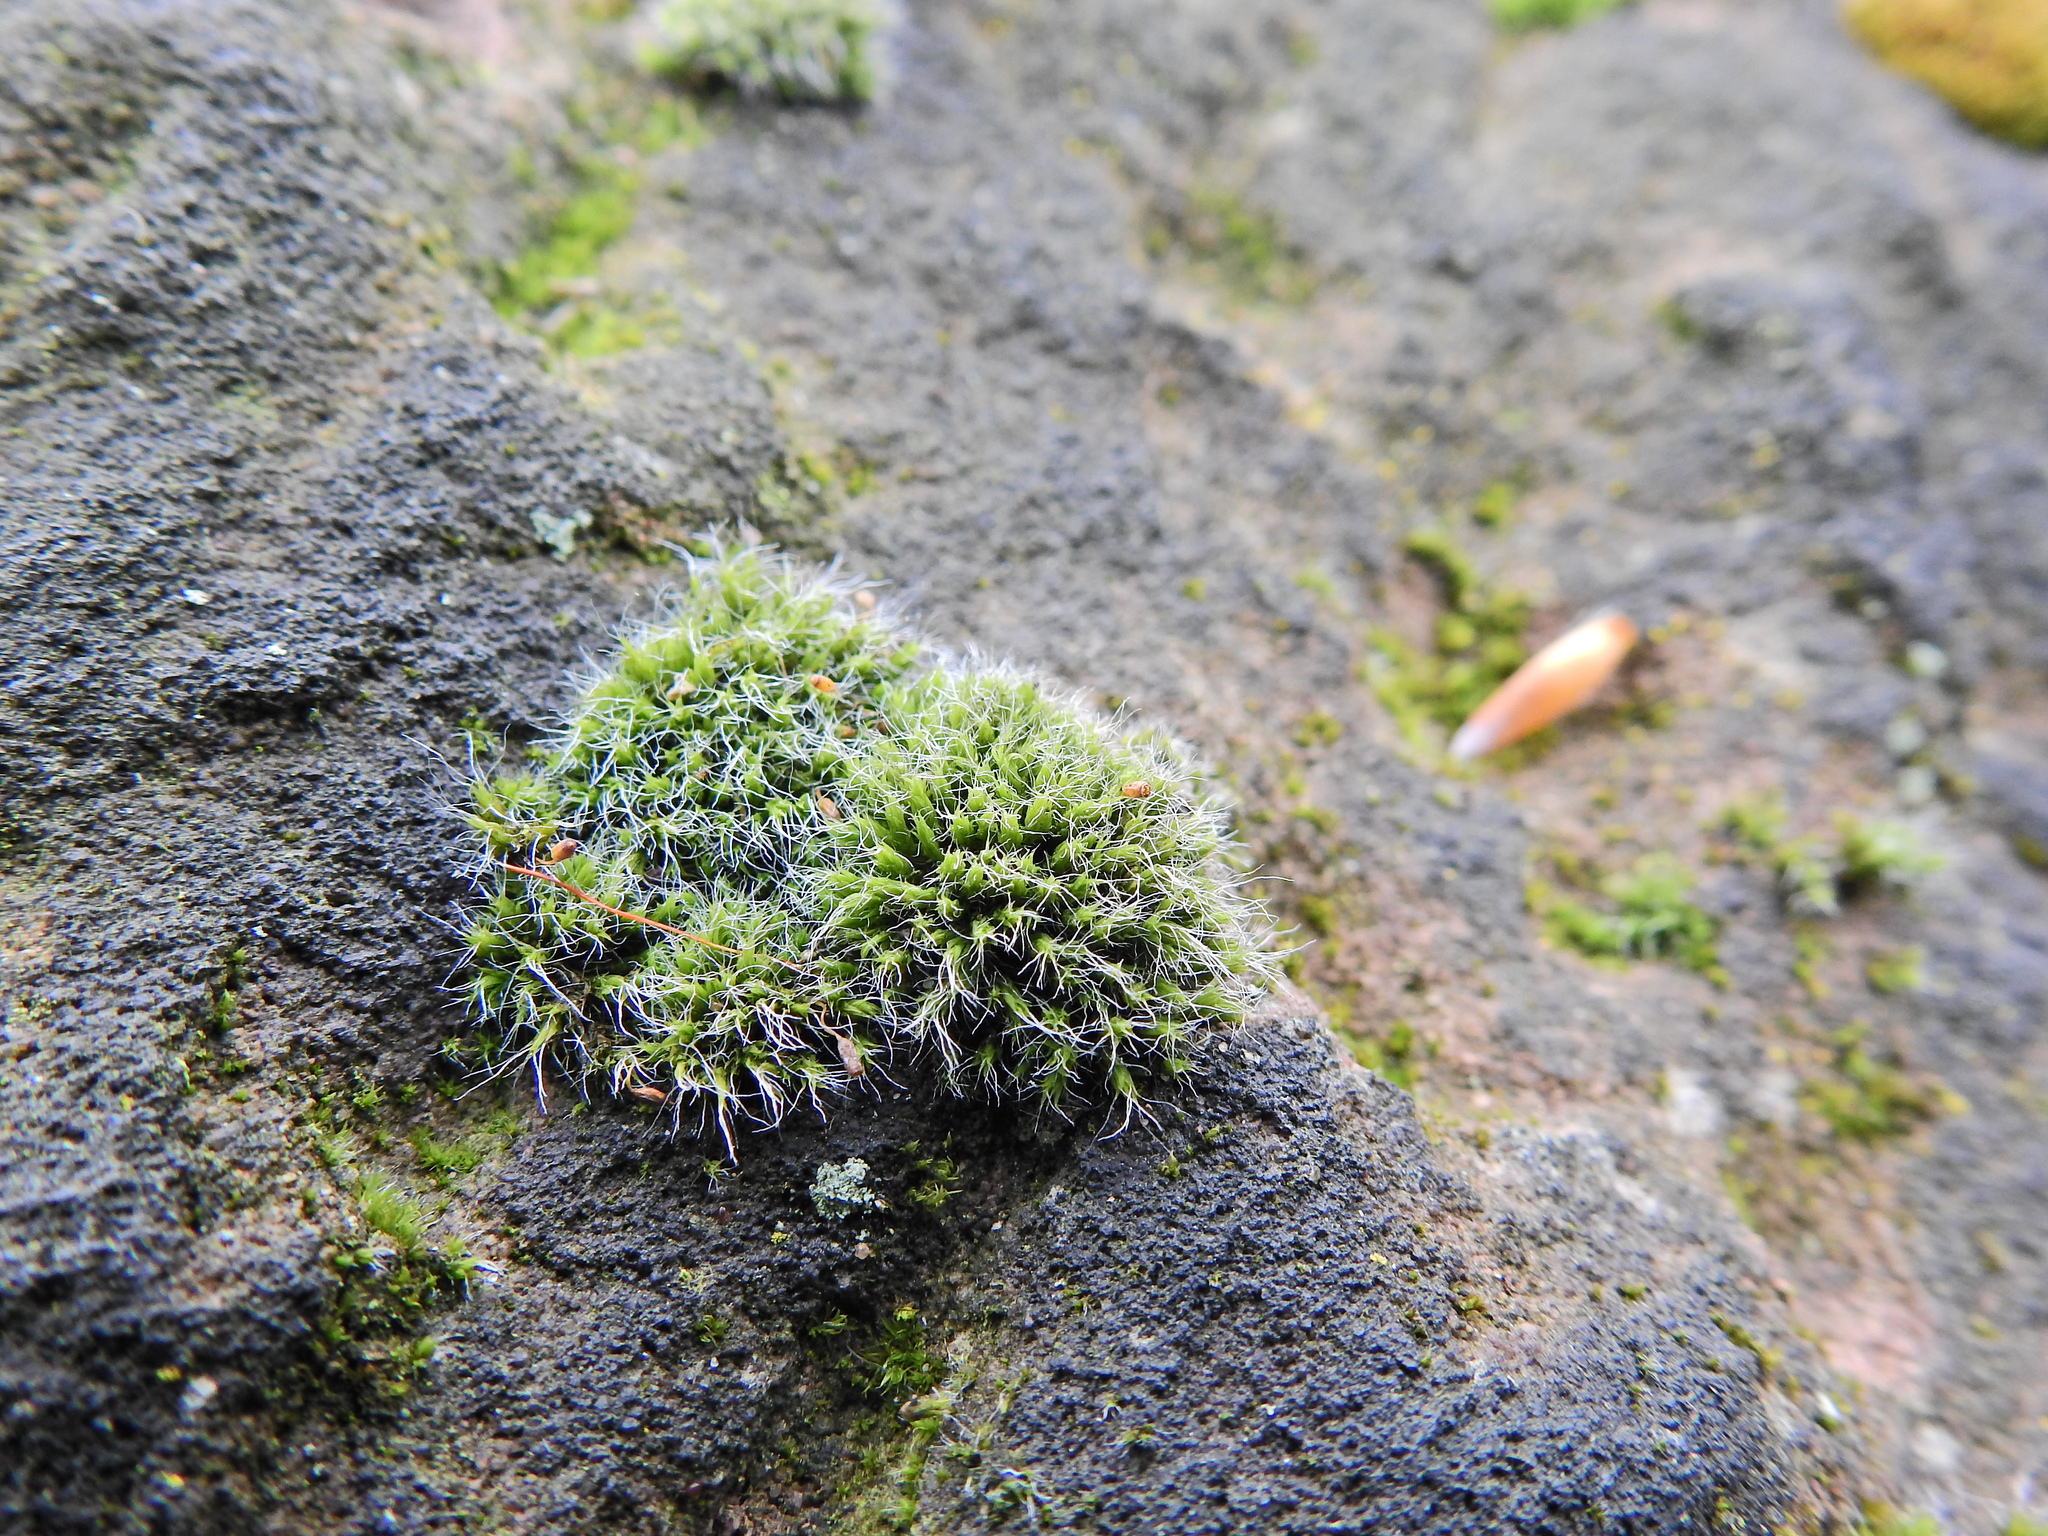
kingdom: Plantae
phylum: Bryophyta
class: Bryopsida
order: Grimmiales
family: Grimmiaceae
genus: Grimmia
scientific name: Grimmia pulvinata
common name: Grey-cushioned grimmia
